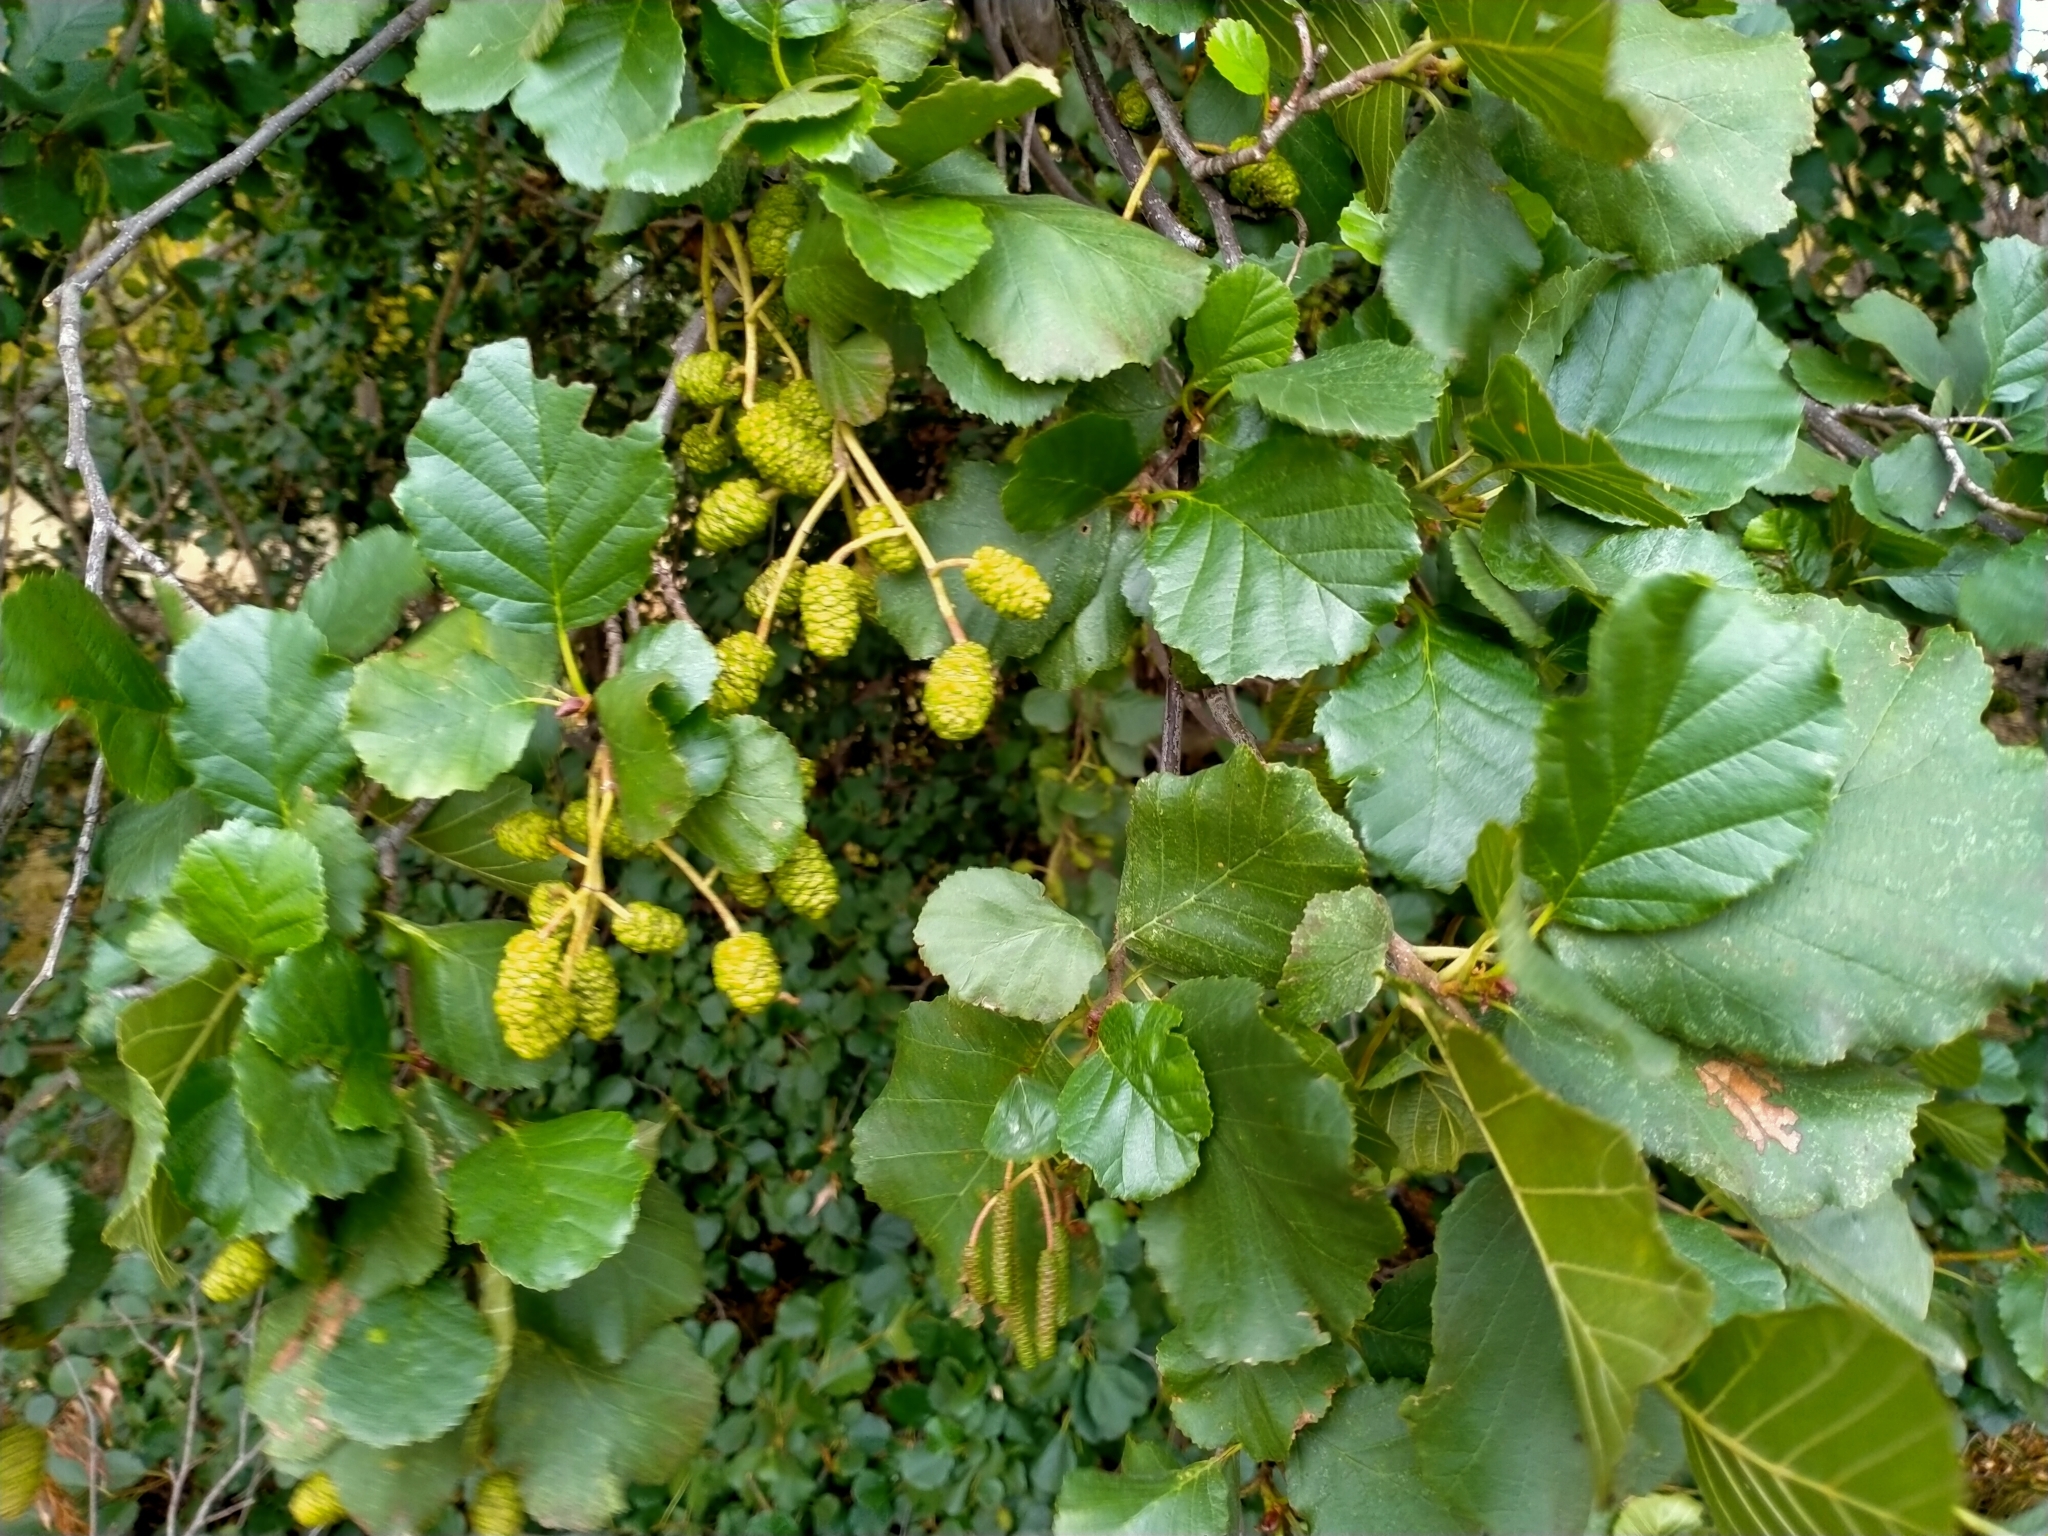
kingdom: Plantae
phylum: Tracheophyta
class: Magnoliopsida
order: Fagales
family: Betulaceae
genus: Alnus
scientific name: Alnus glutinosa
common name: Black alder
